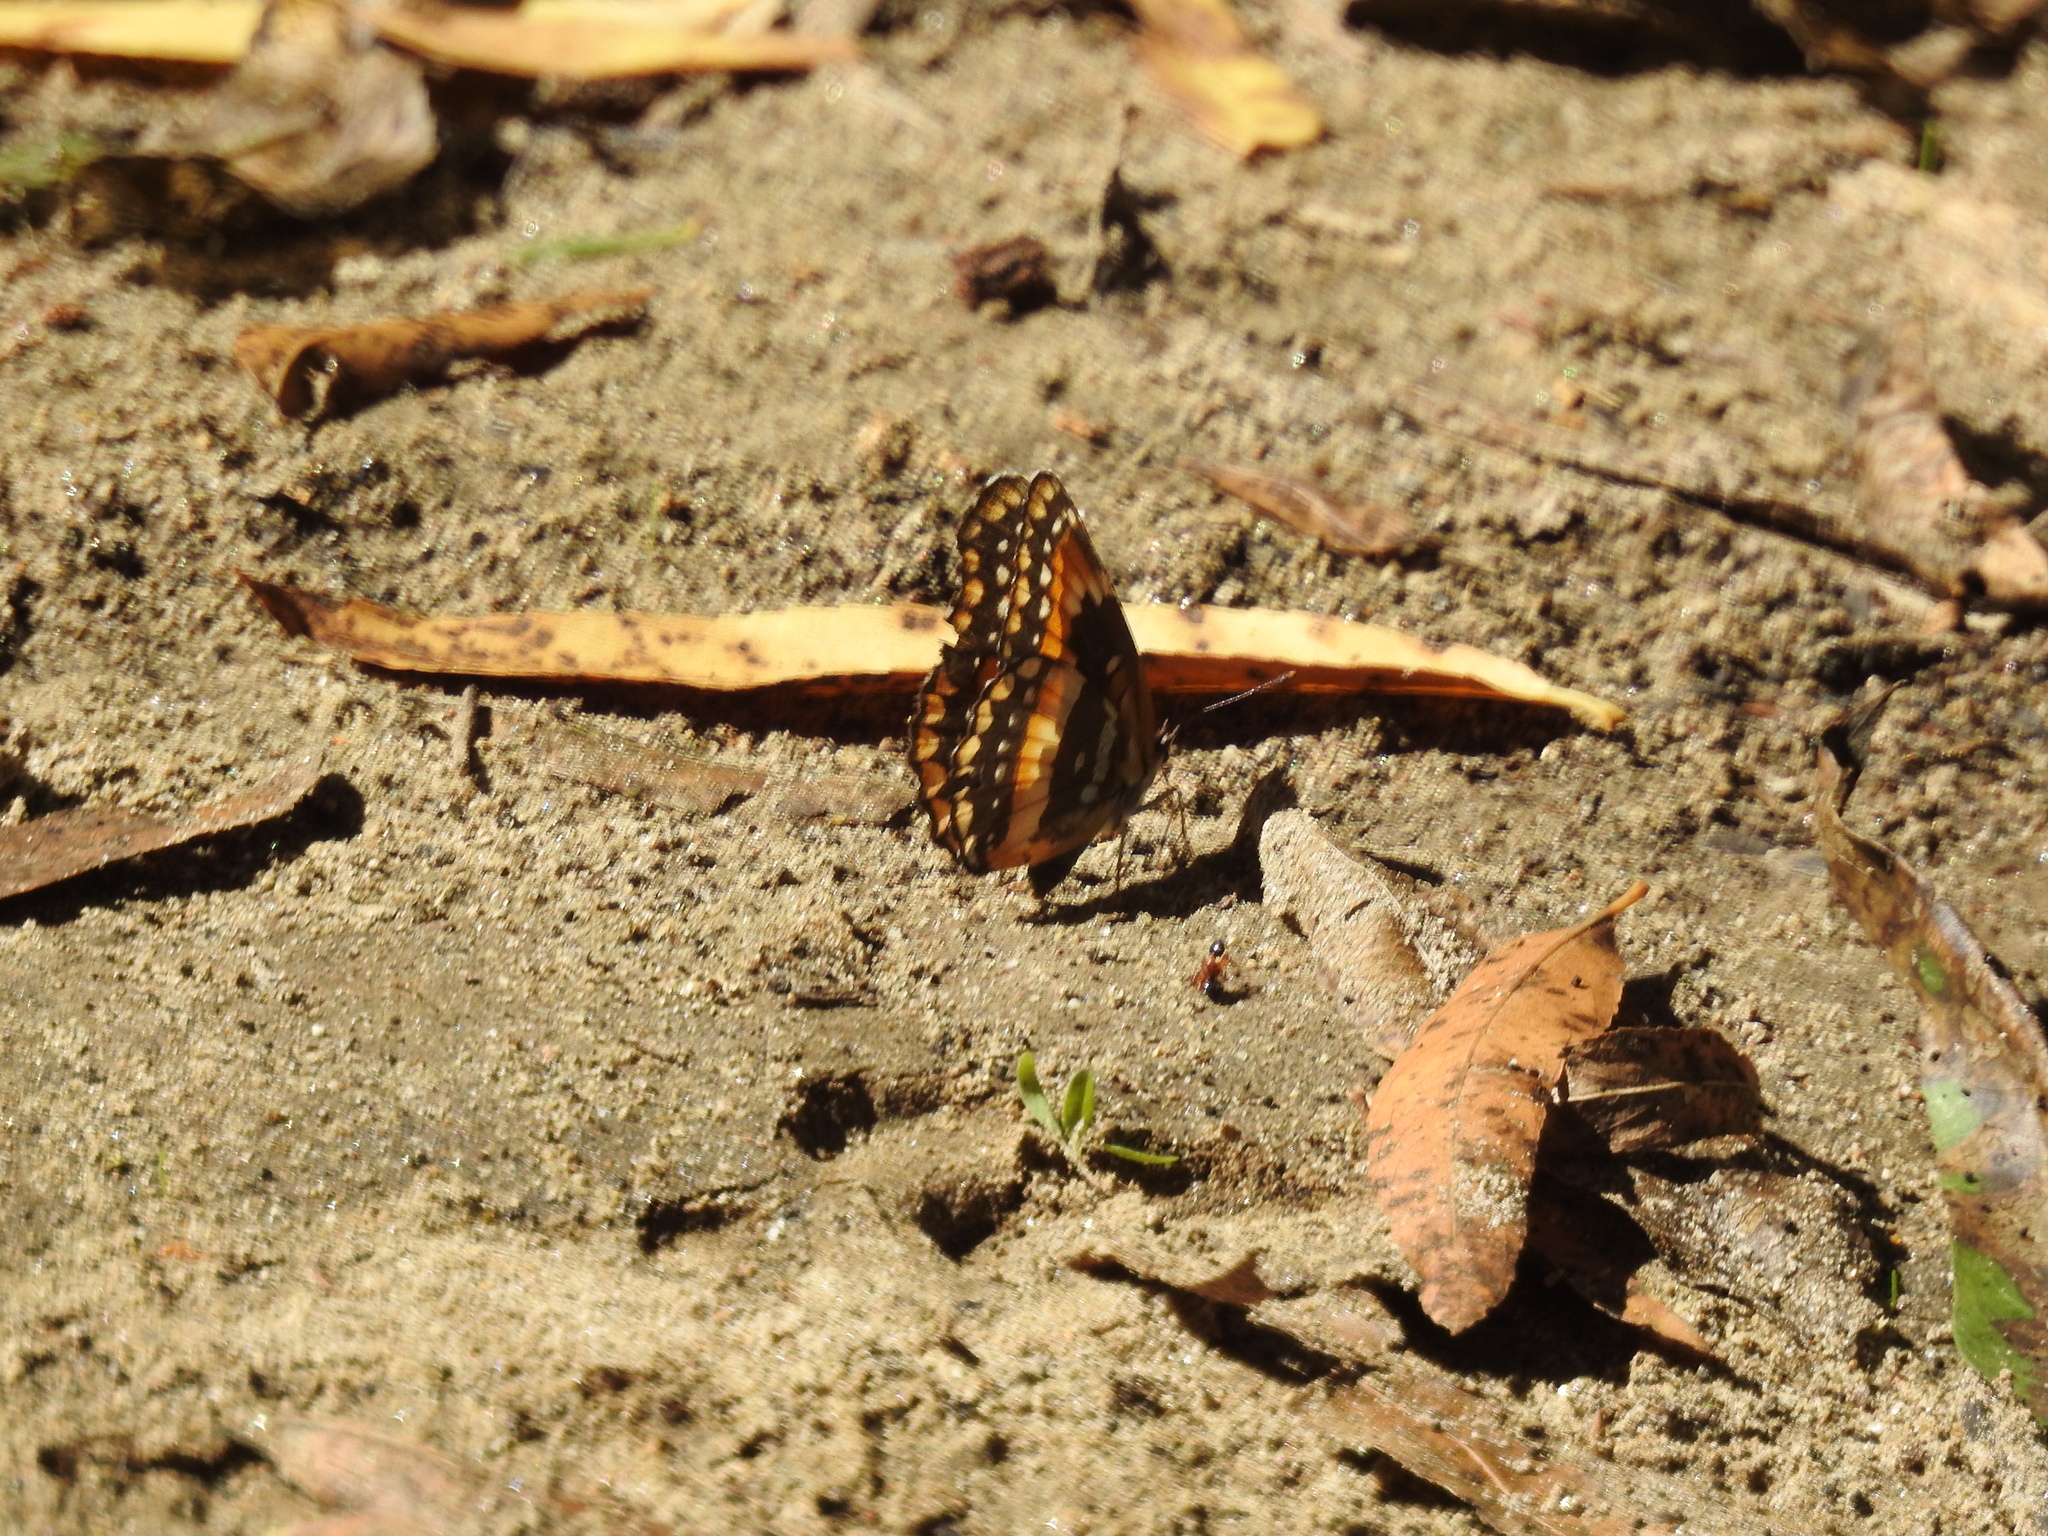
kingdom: Animalia
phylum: Arthropoda
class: Insecta
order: Lepidoptera
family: Nymphalidae
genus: Chlosyne
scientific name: Chlosyne californica
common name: California patch
